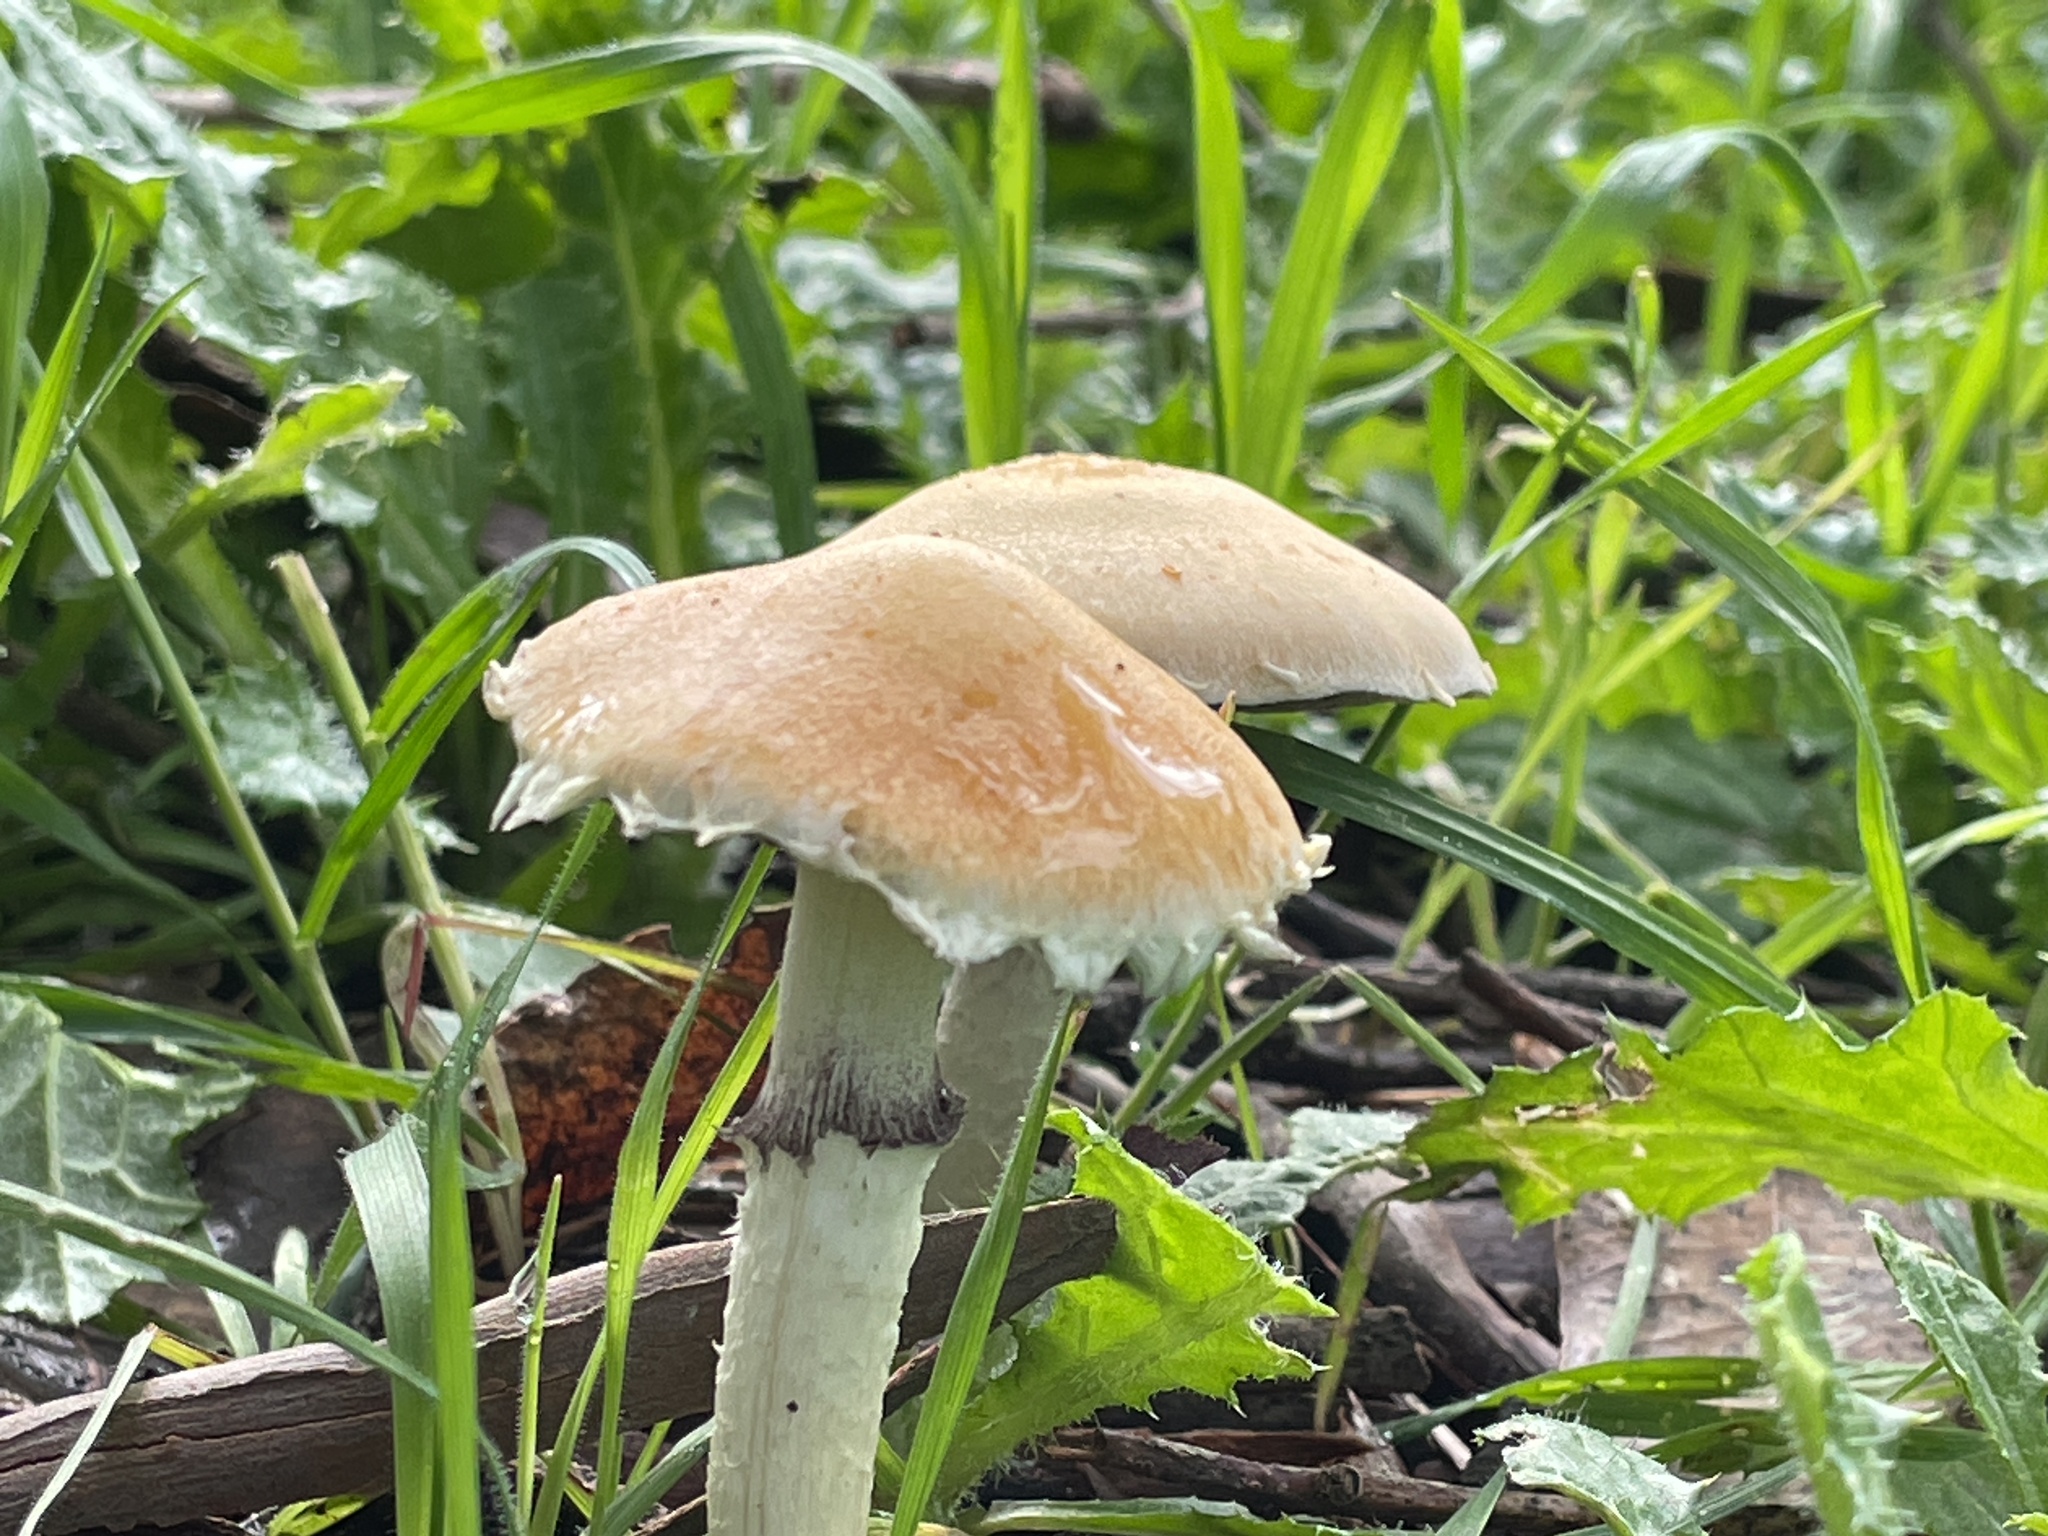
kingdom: Fungi
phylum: Basidiomycota
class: Agaricomycetes
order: Agaricales
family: Strophariaceae
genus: Leratiomyces
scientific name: Leratiomyces percevalii
